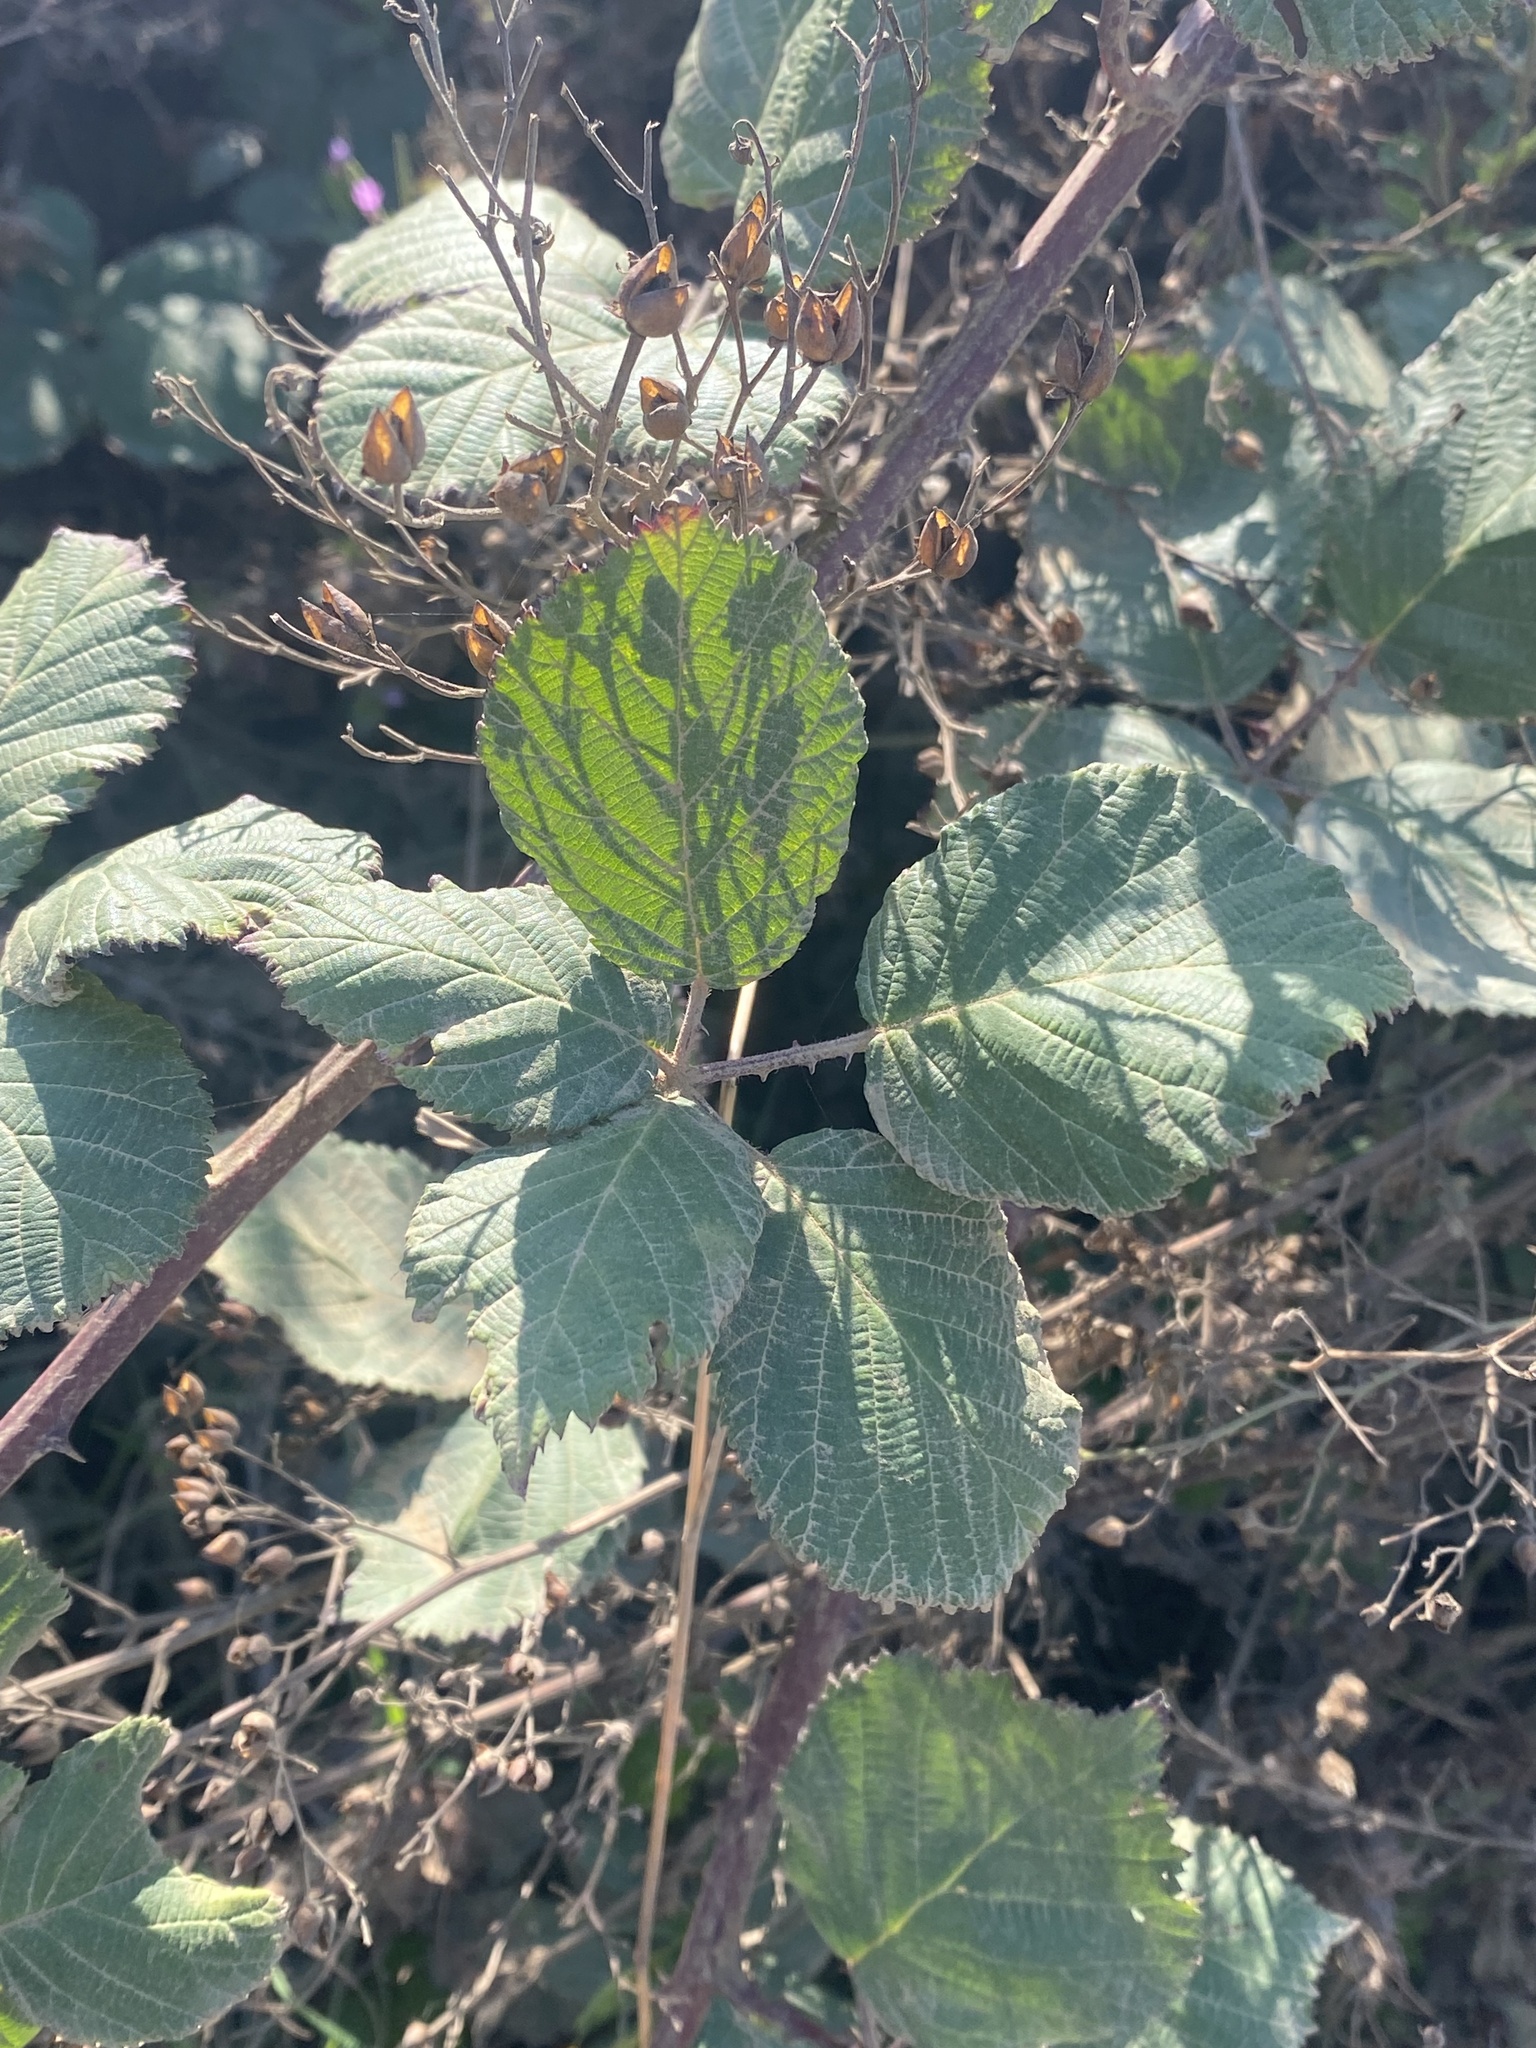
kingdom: Plantae
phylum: Tracheophyta
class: Magnoliopsida
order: Rosales
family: Rosaceae
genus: Rubus
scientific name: Rubus armeniacus
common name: Himalayan blackberry
